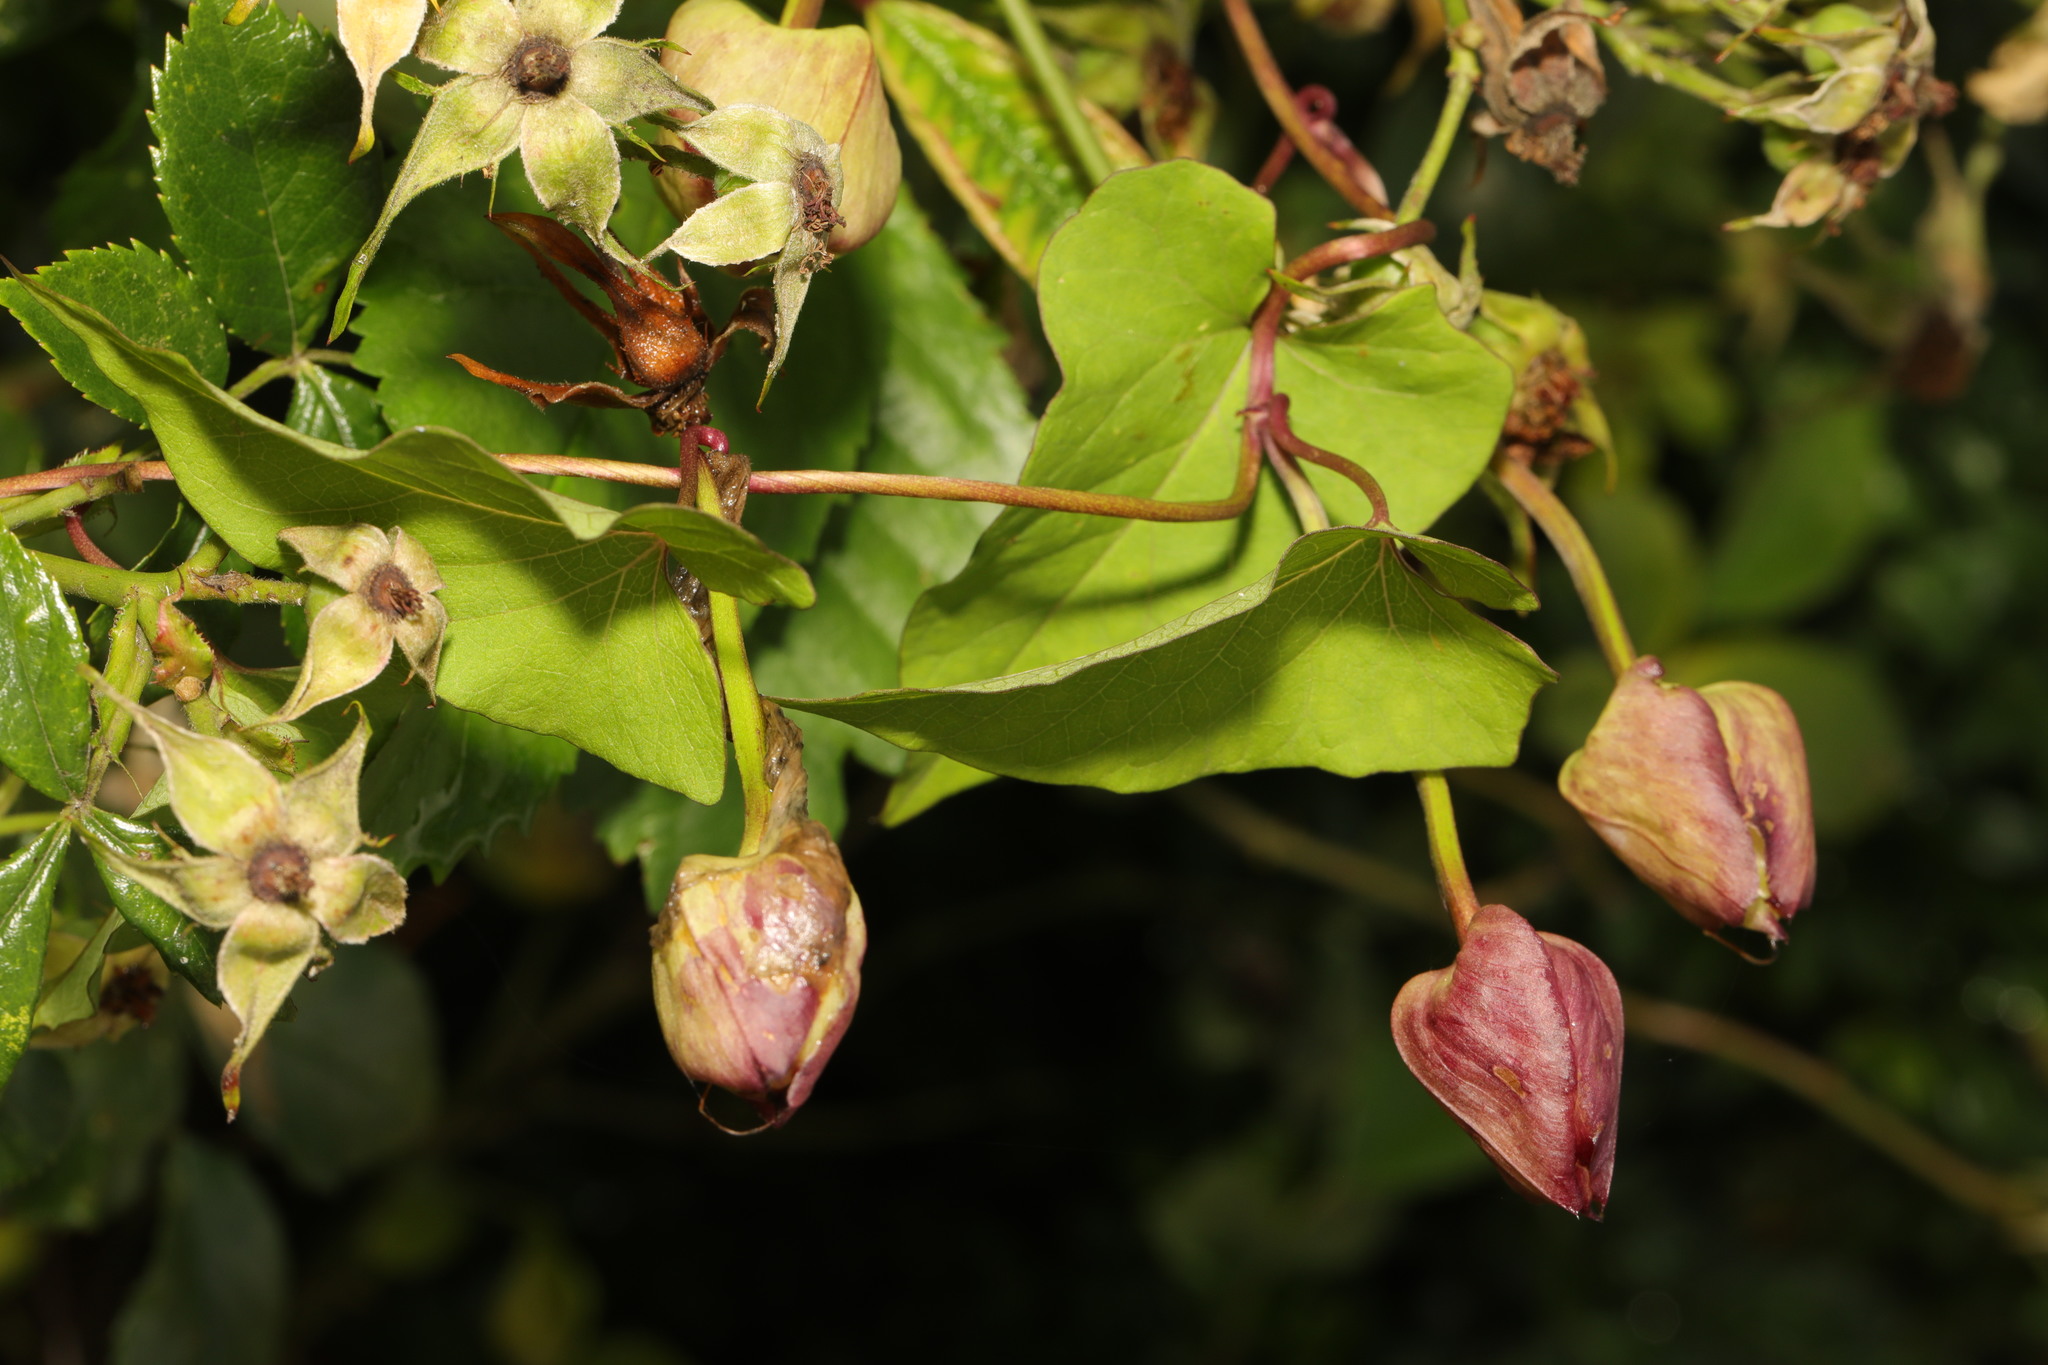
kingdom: Plantae
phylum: Tracheophyta
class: Magnoliopsida
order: Solanales
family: Convolvulaceae
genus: Calystegia
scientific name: Calystegia silvatica
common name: Large bindweed
